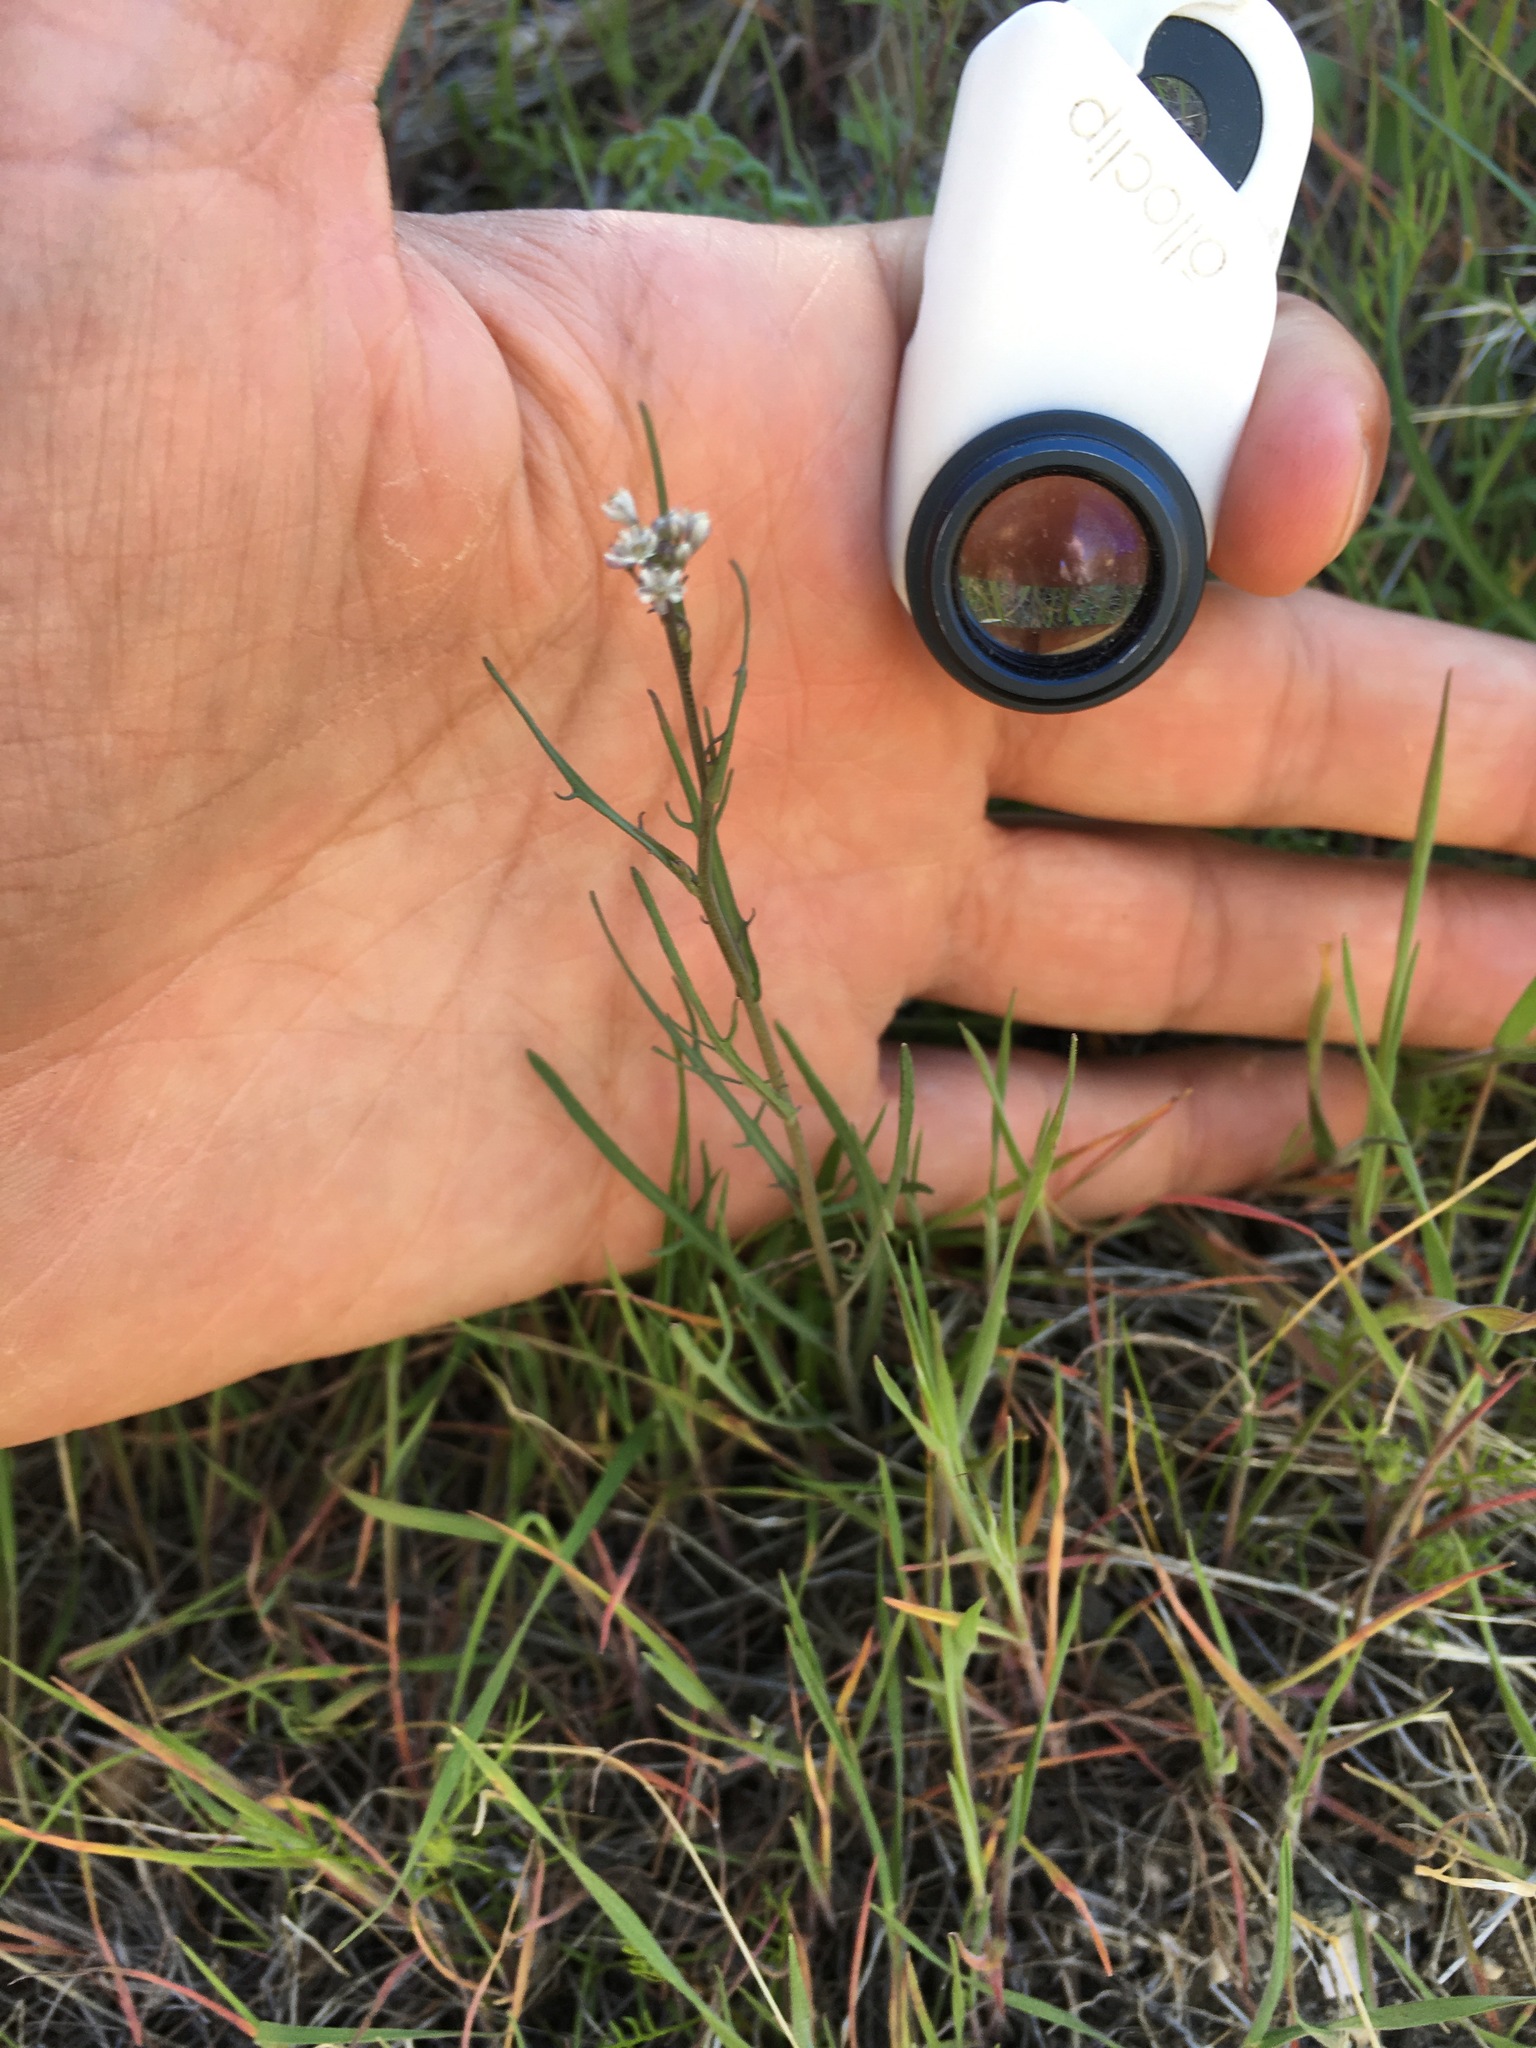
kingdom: Plantae
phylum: Tracheophyta
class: Magnoliopsida
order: Brassicales
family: Brassicaceae
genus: Thysanocarpus
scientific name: Thysanocarpus laciniatus
